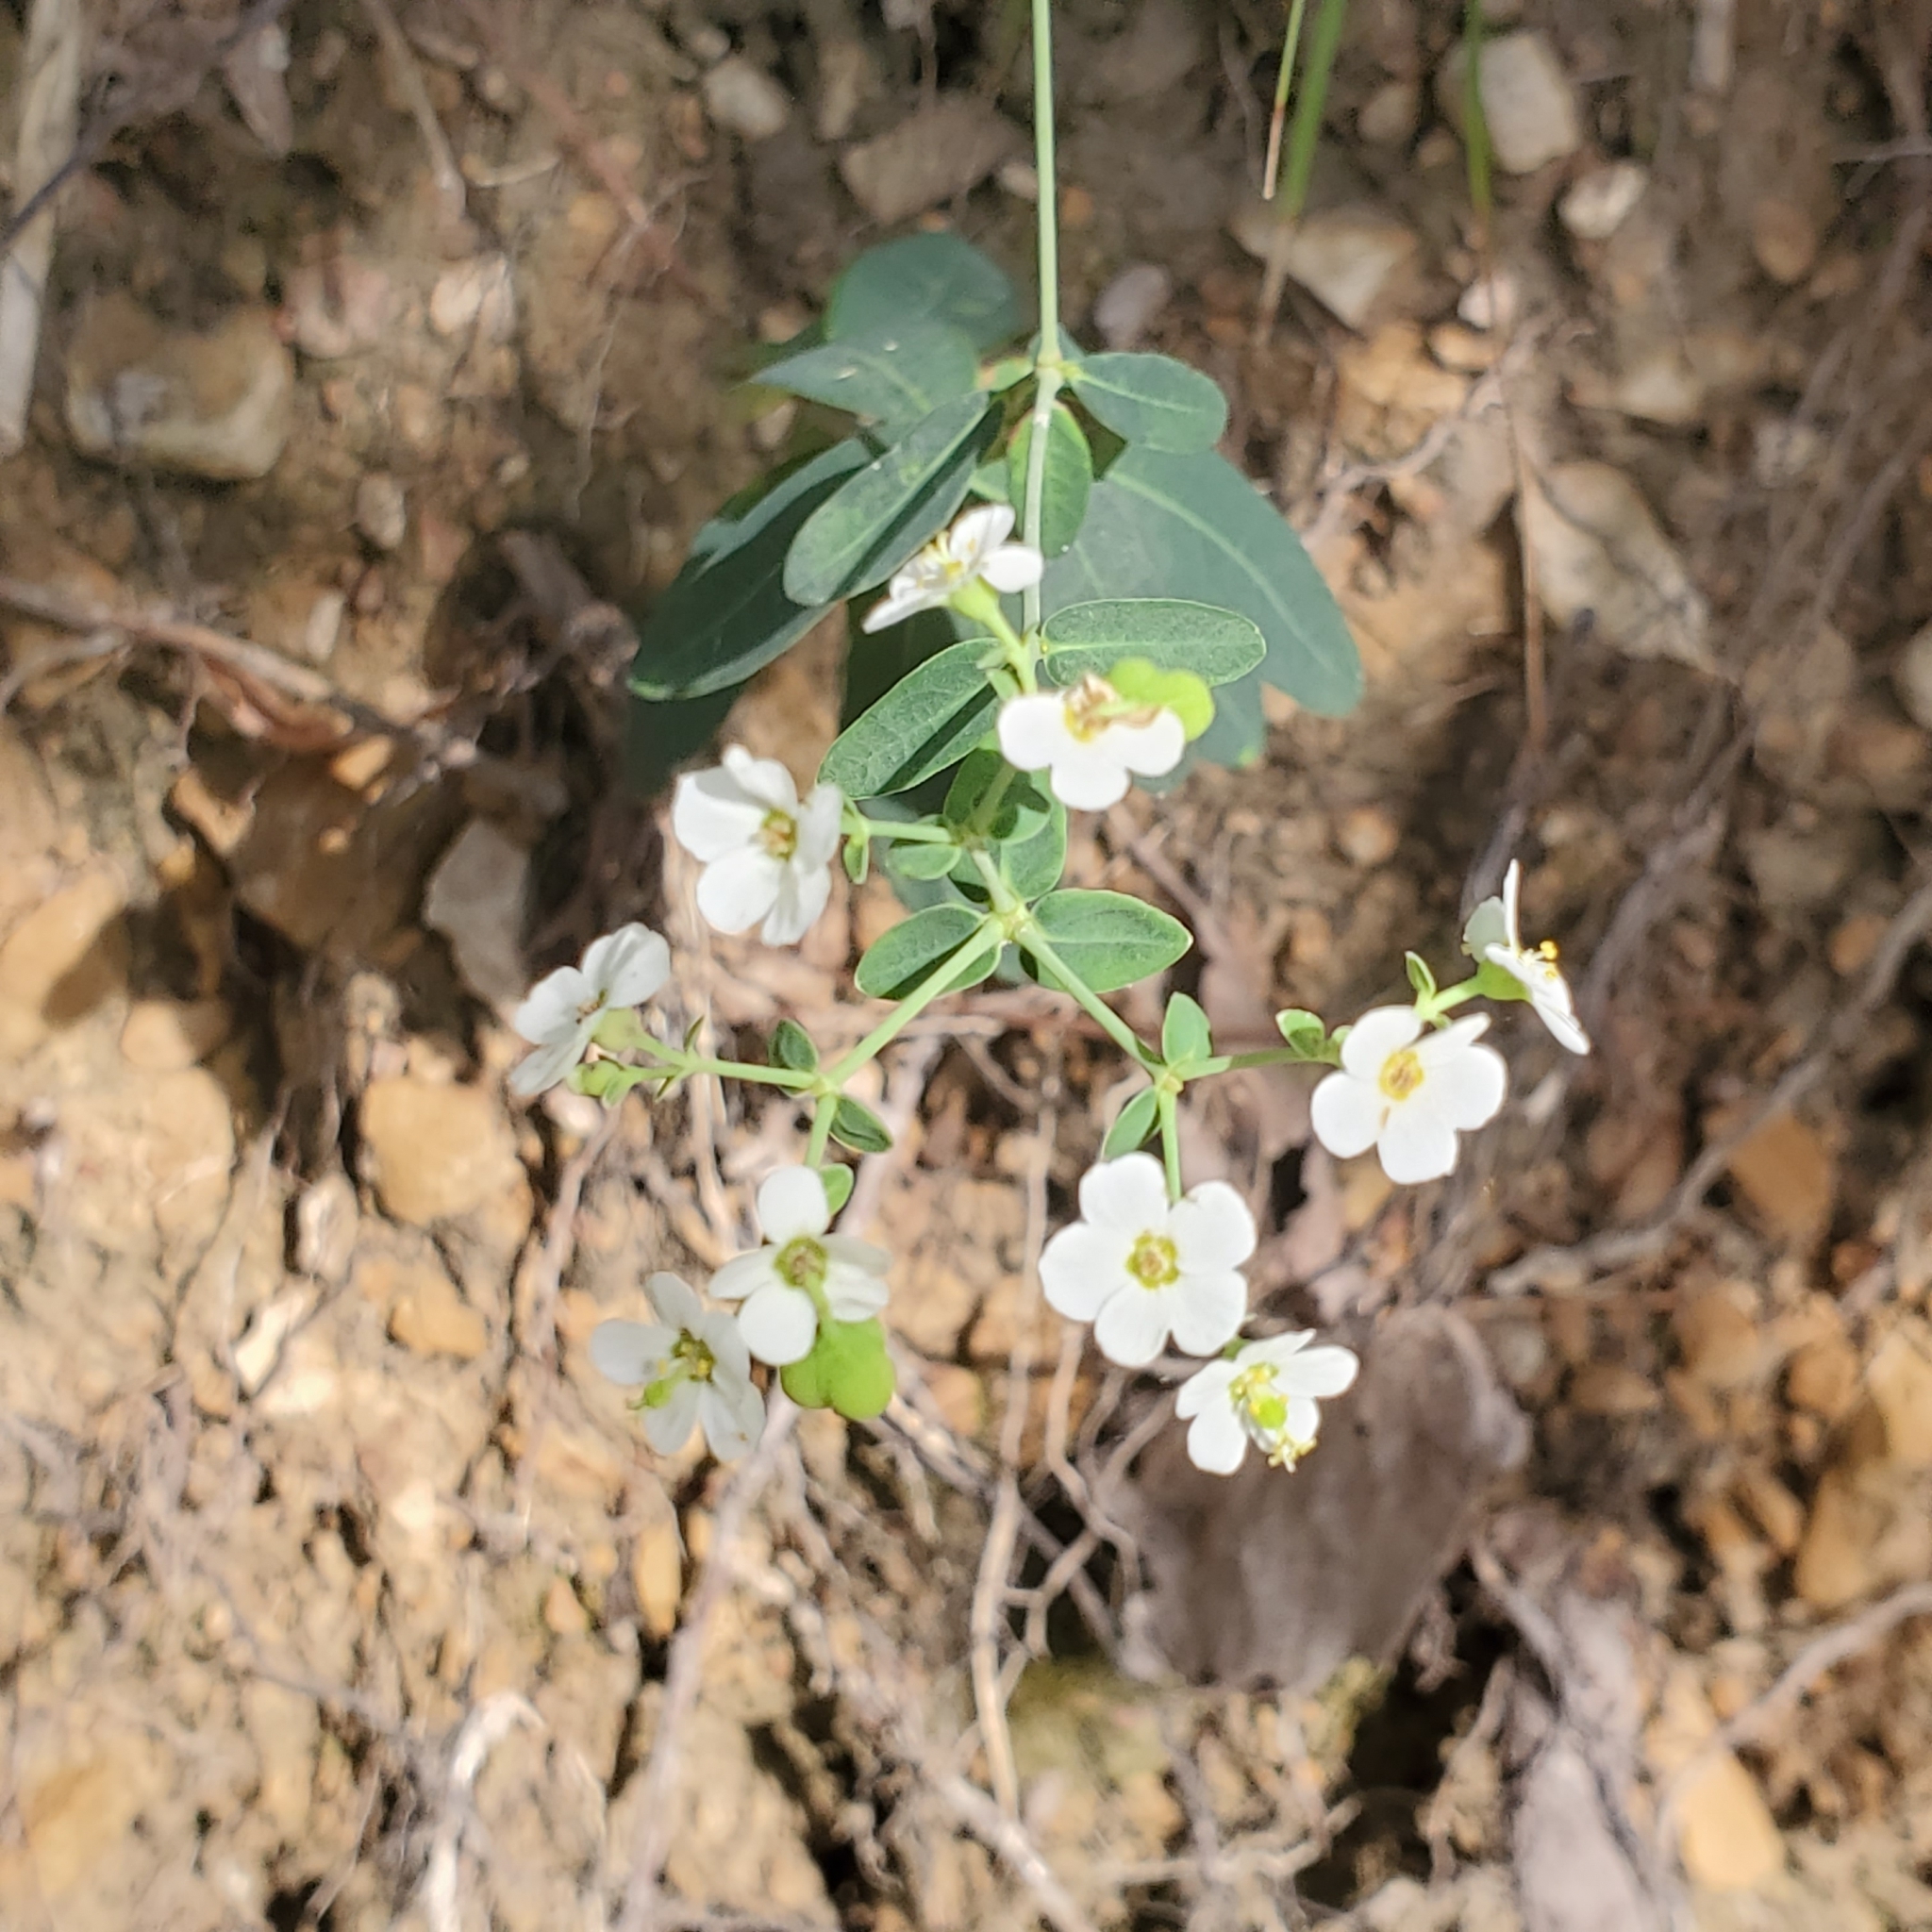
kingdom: Plantae
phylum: Tracheophyta
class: Magnoliopsida
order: Malpighiales
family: Euphorbiaceae
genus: Euphorbia
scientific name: Euphorbia corollata
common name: Flowering spurge
